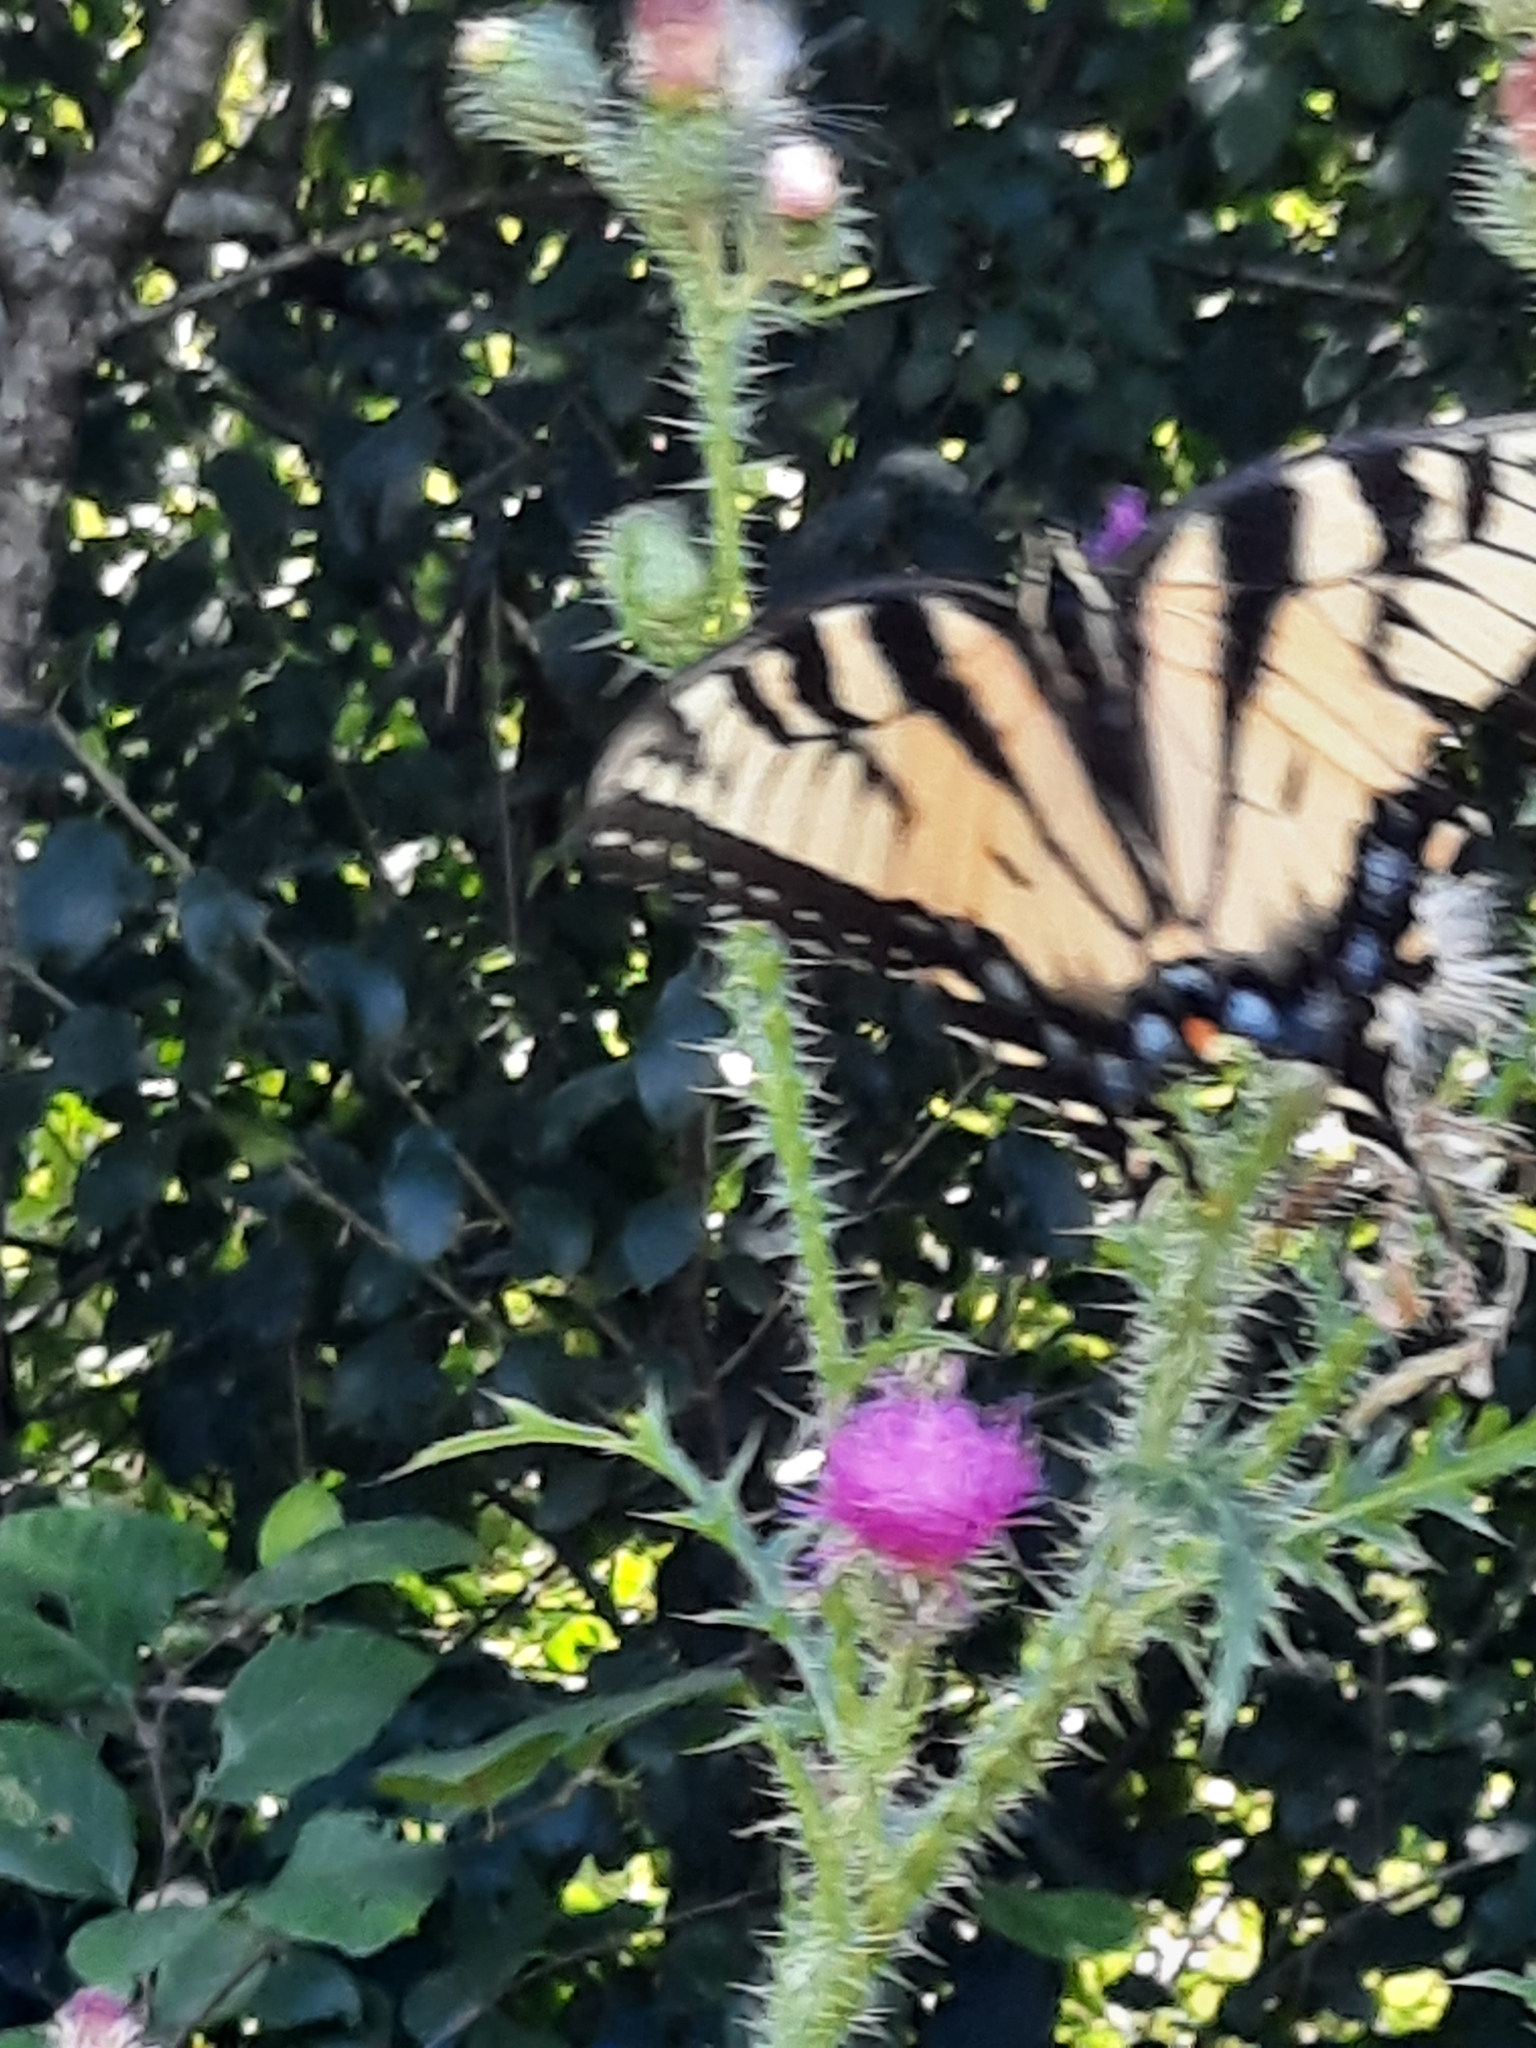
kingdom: Animalia
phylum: Arthropoda
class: Insecta
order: Lepidoptera
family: Papilionidae
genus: Papilio
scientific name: Papilio glaucus
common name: Tiger swallowtail
